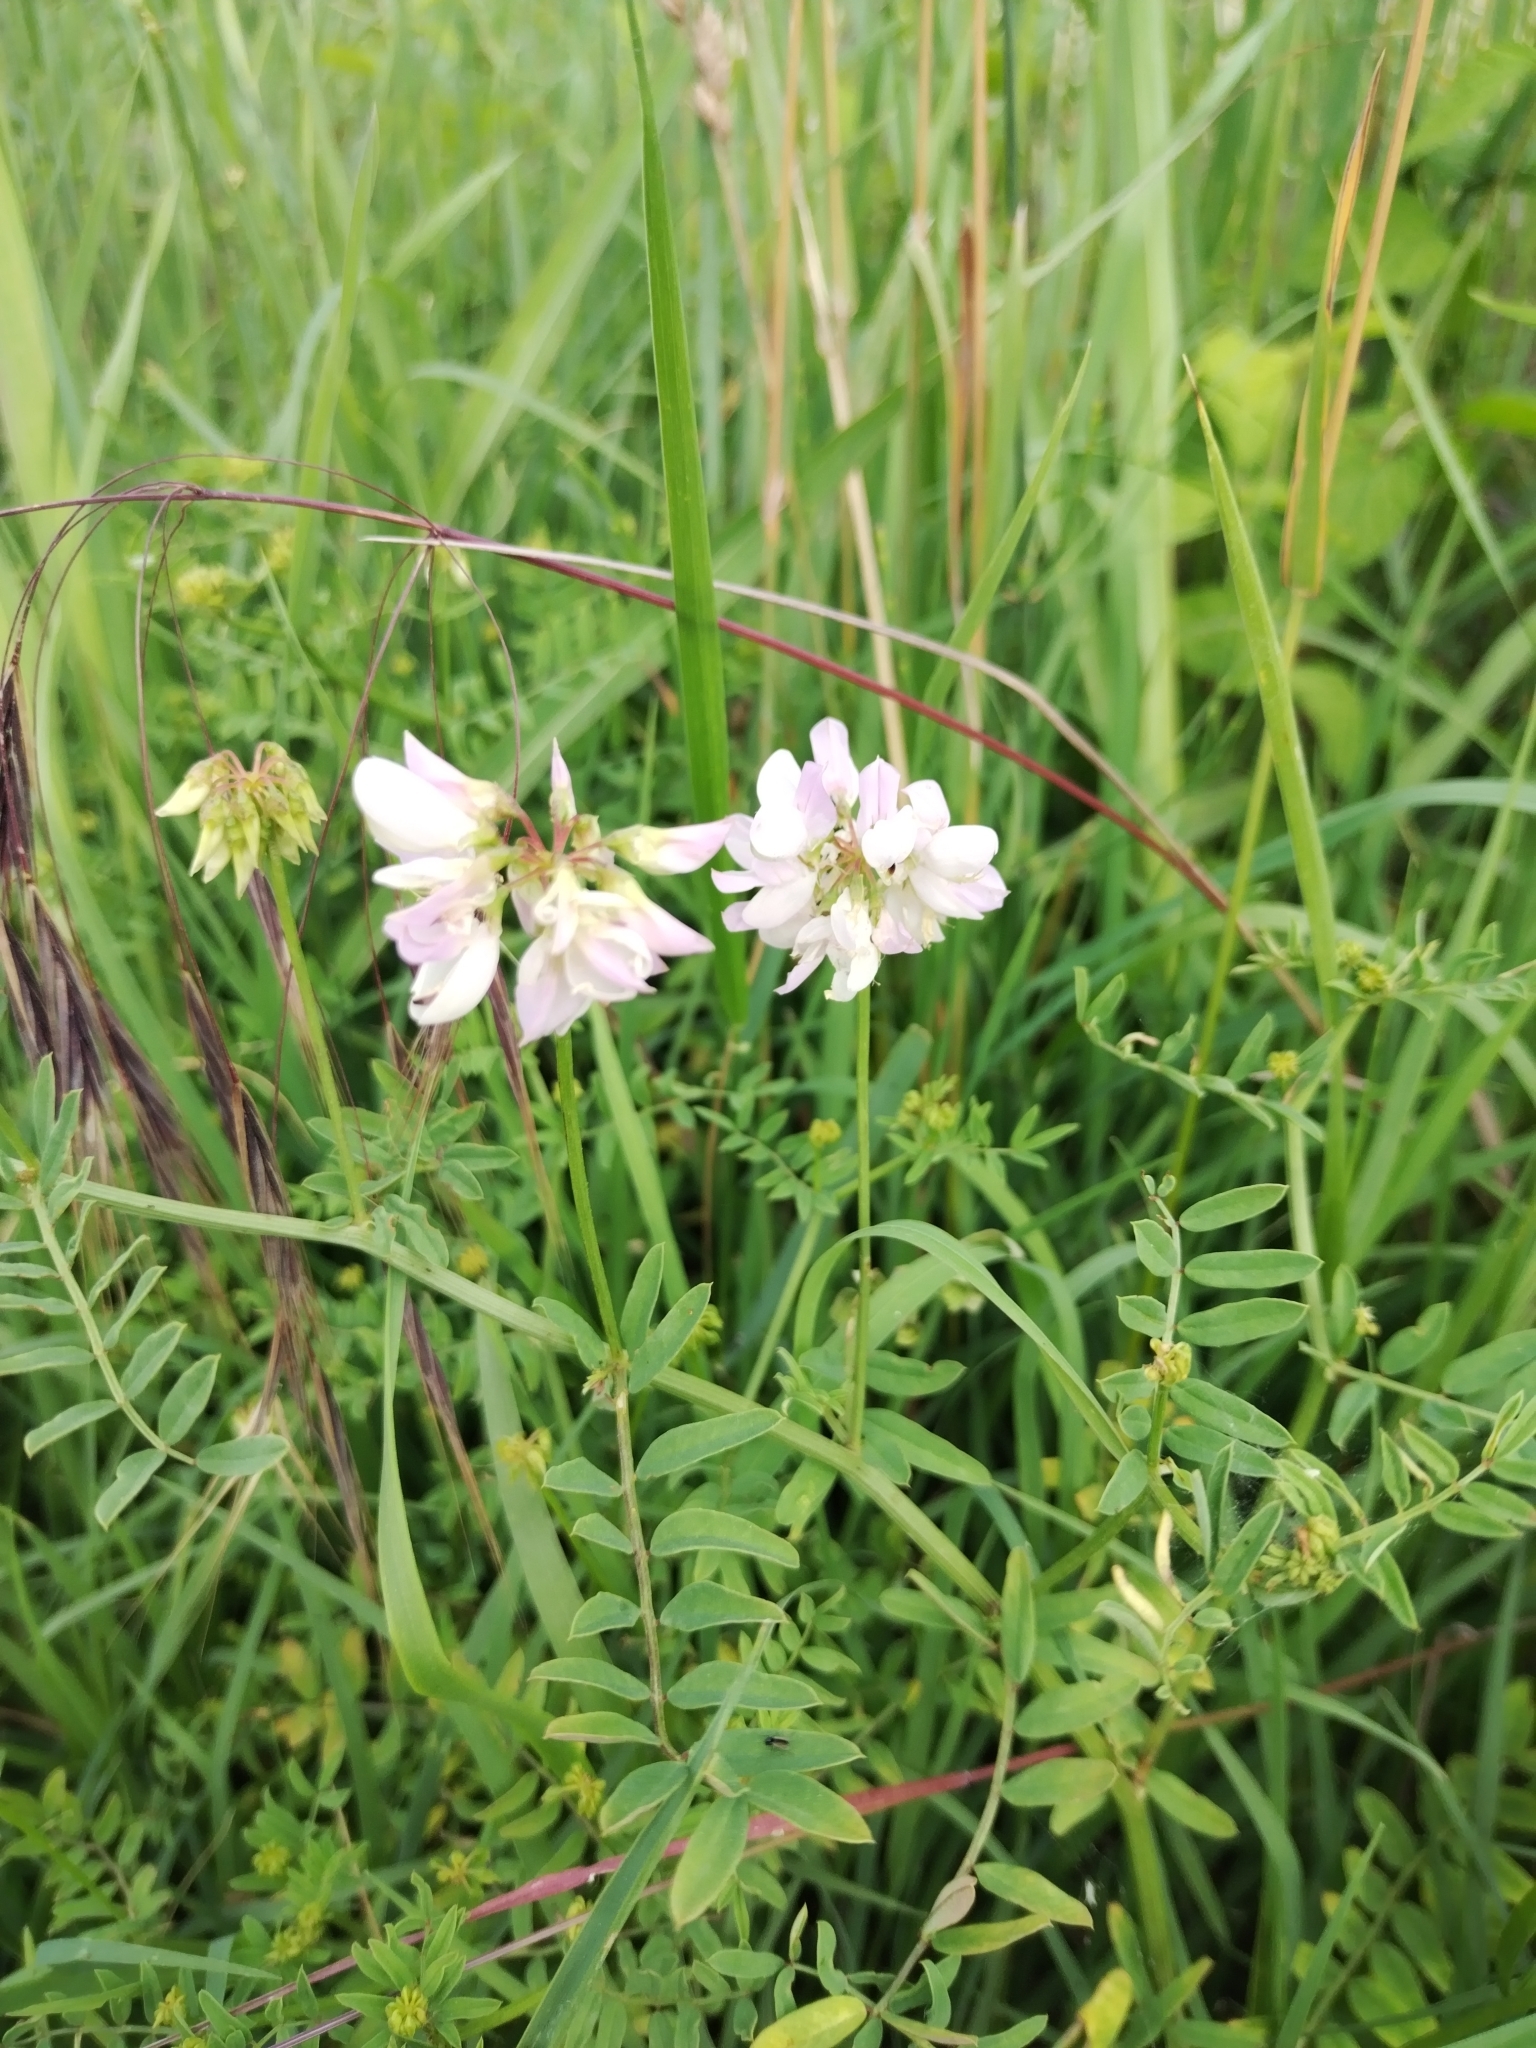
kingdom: Plantae
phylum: Tracheophyta
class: Magnoliopsida
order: Fabales
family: Fabaceae
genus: Coronilla
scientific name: Coronilla varia
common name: Crownvetch
